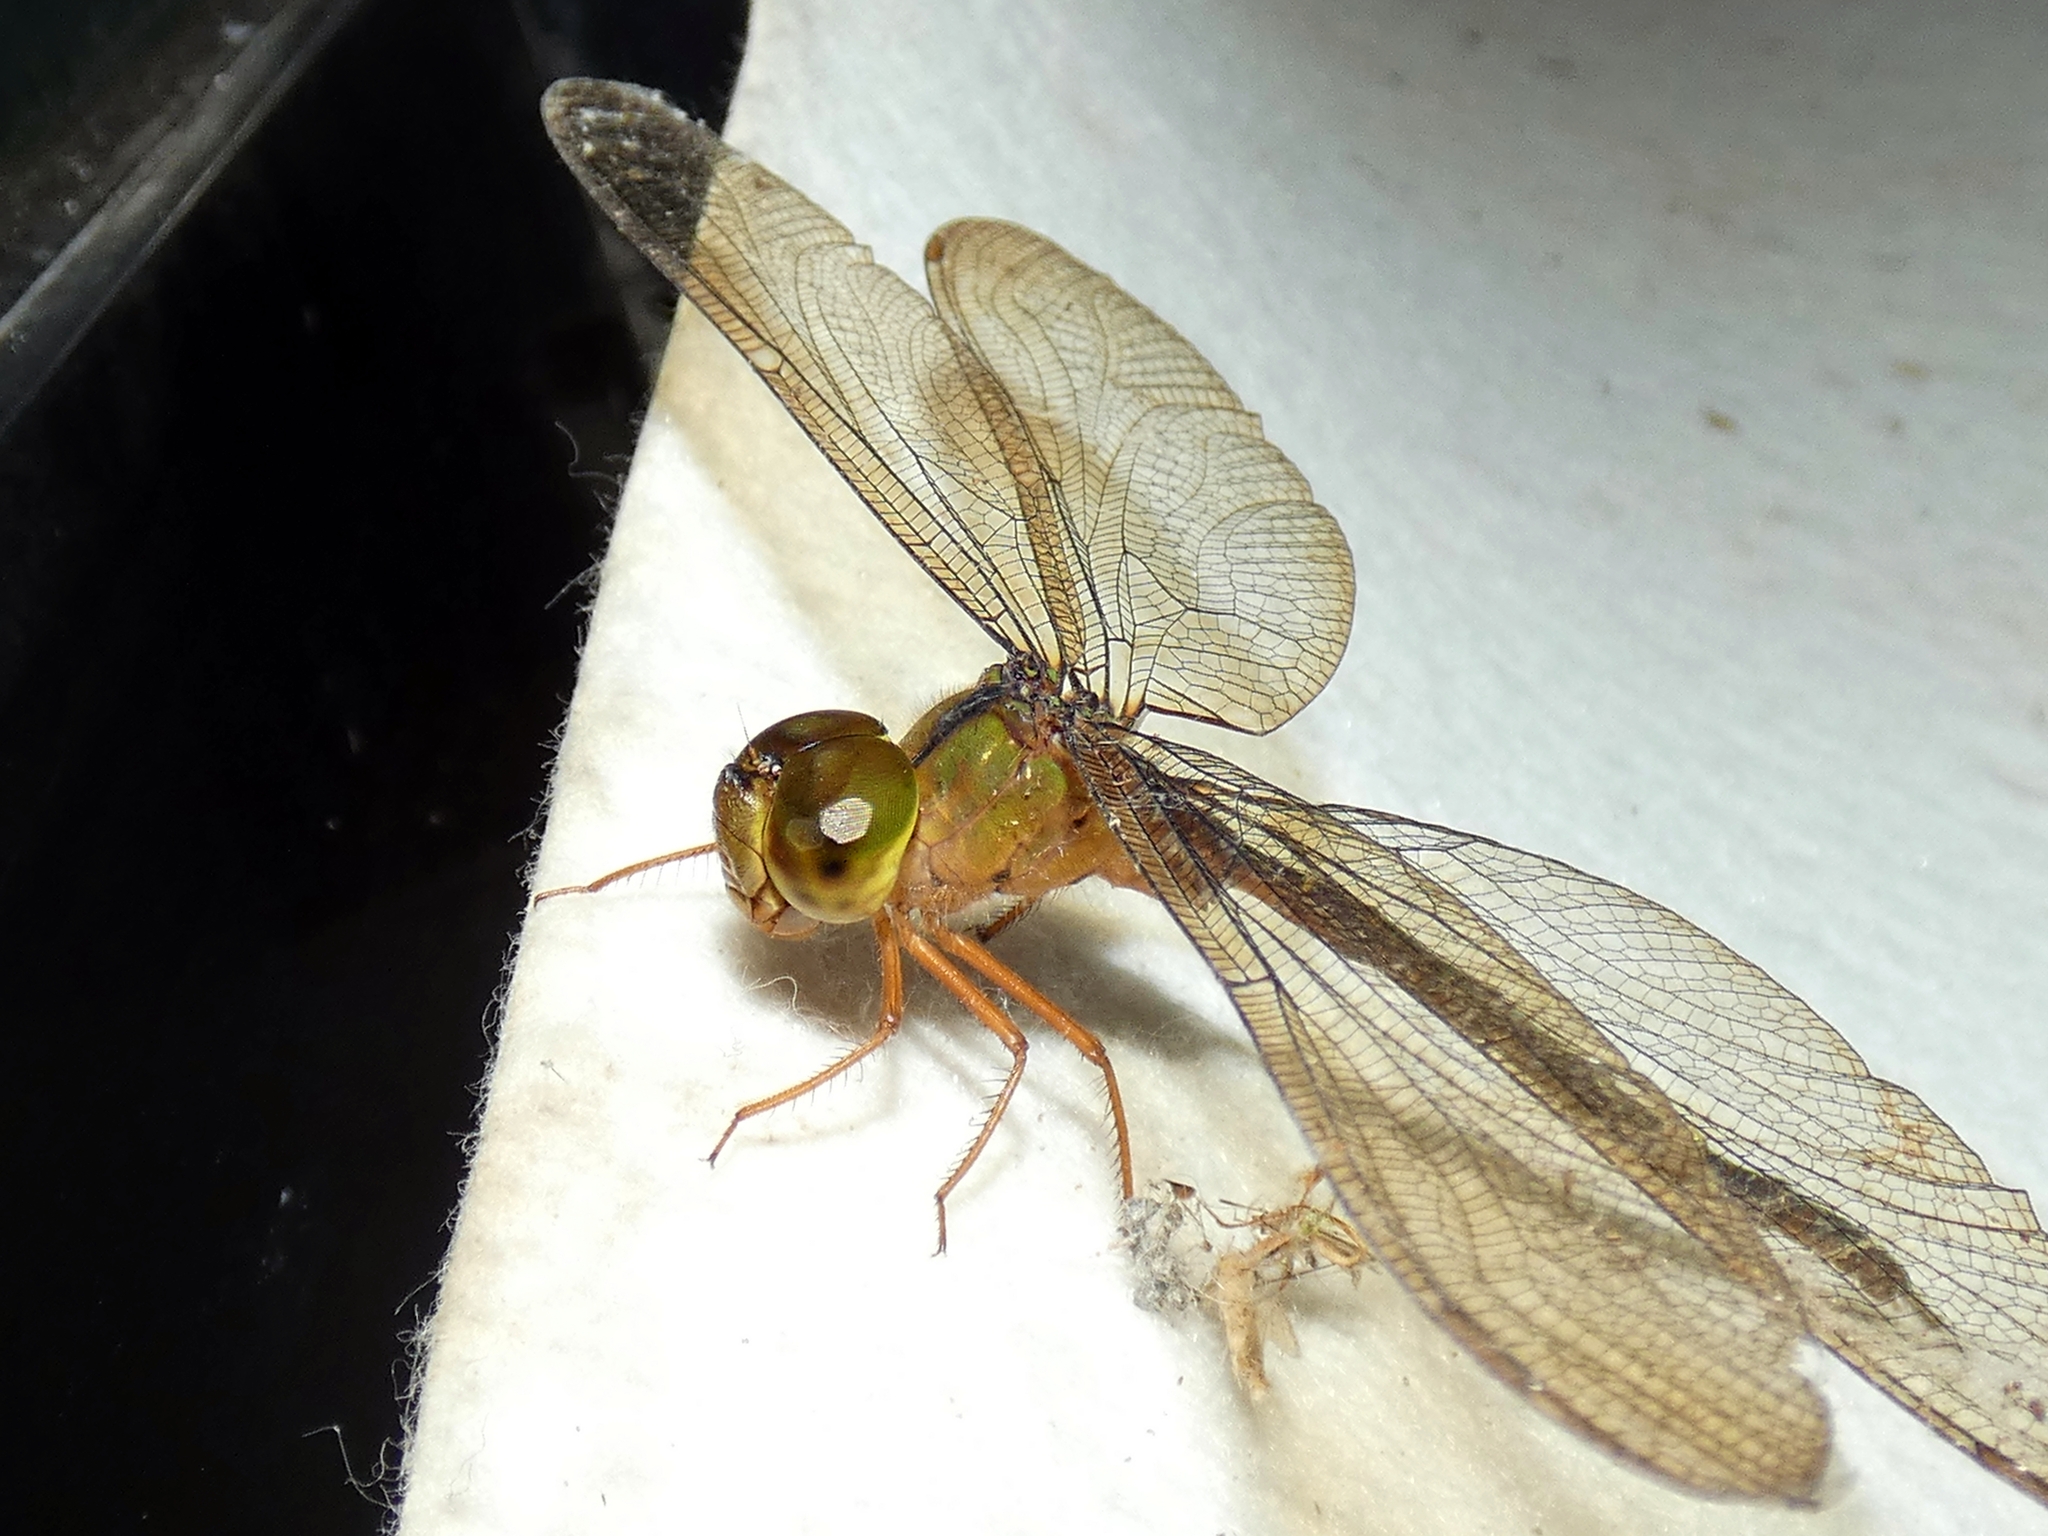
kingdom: Animalia
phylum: Arthropoda
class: Insecta
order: Odonata
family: Aeshnidae
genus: Gynacantha
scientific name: Gynacantha kirbyi
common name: Slender duskhawker
